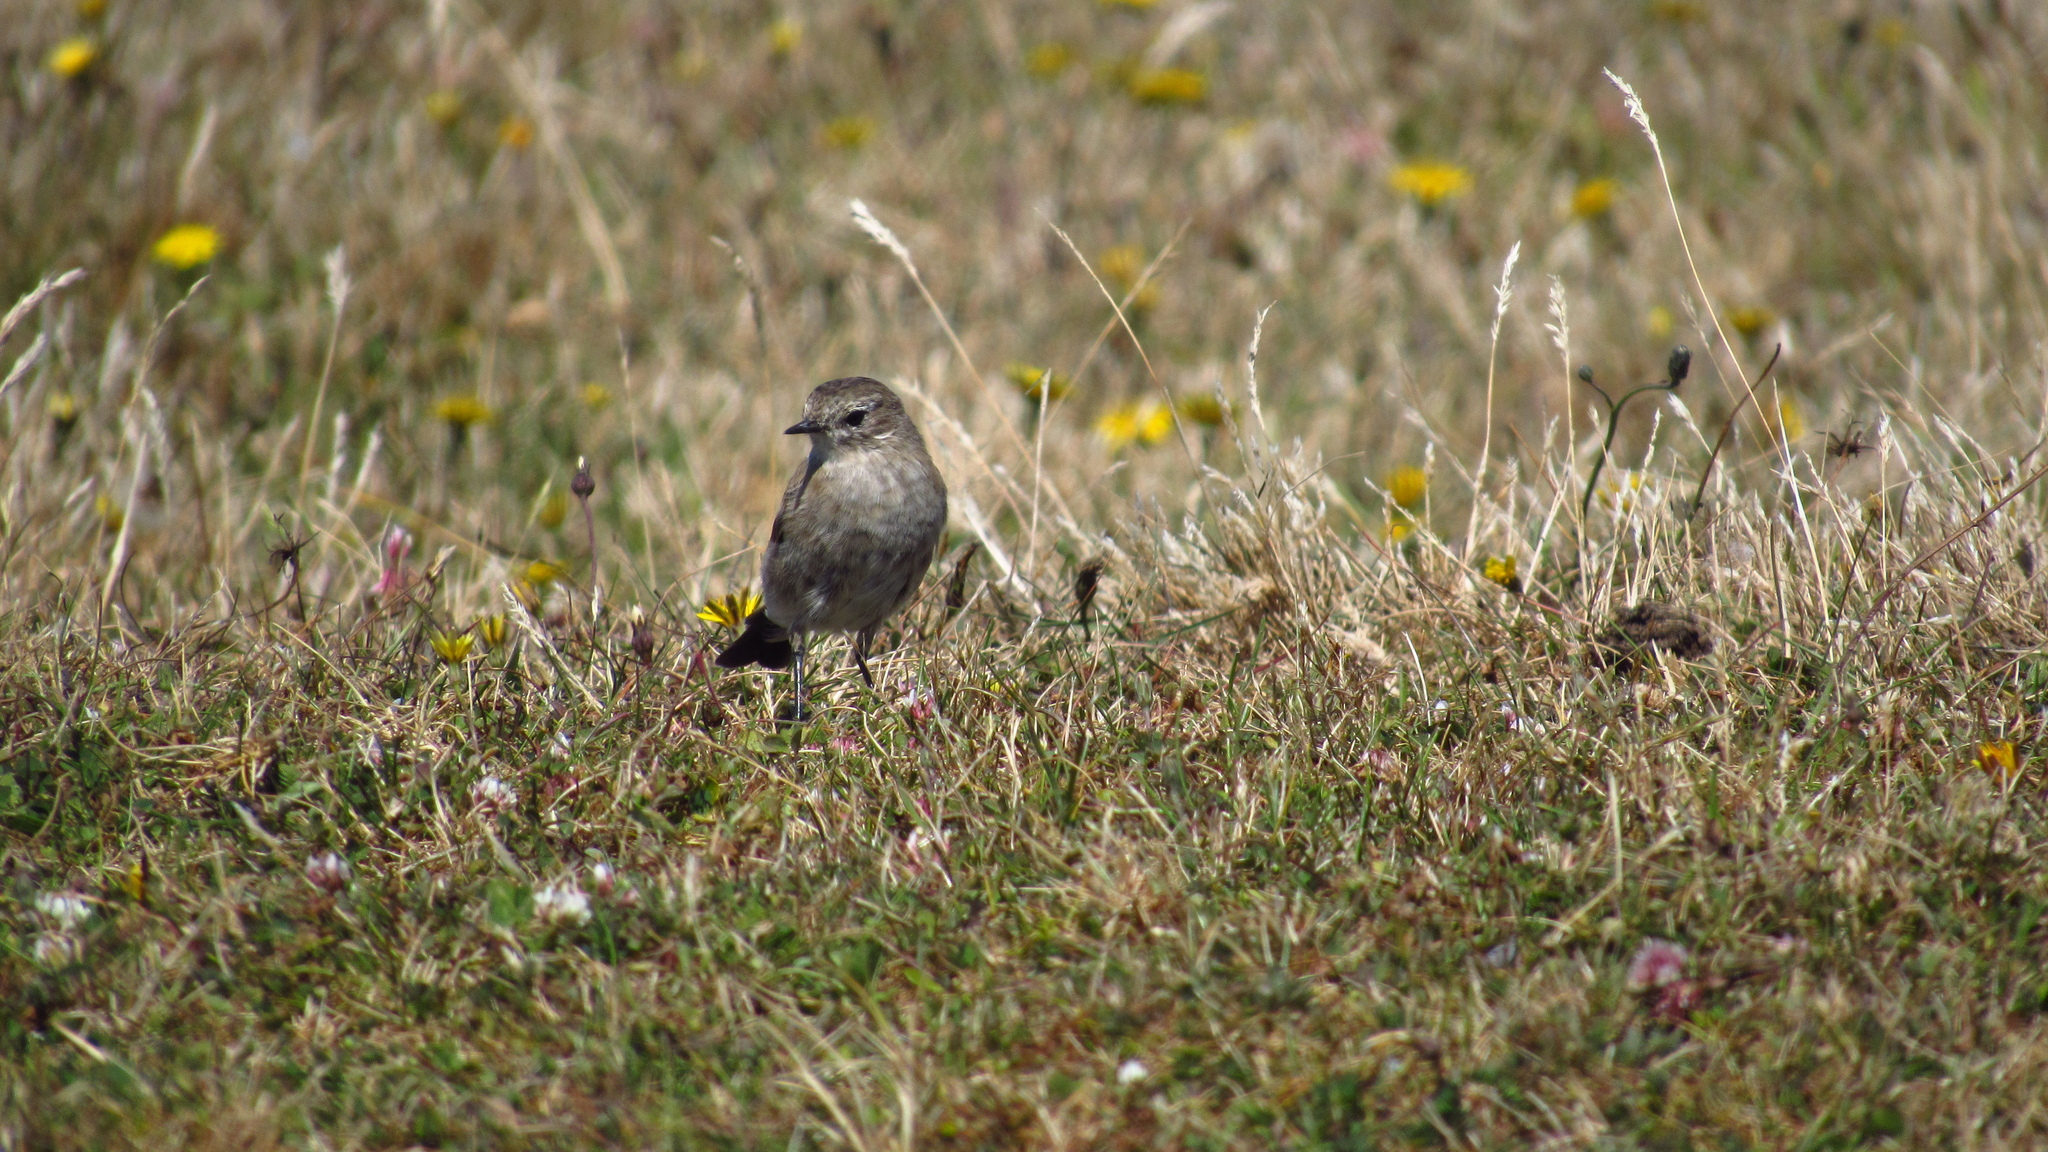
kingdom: Animalia
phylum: Chordata
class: Aves
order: Passeriformes
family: Tyrannidae
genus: Lessonia
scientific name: Lessonia rufa
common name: Austral negrito
